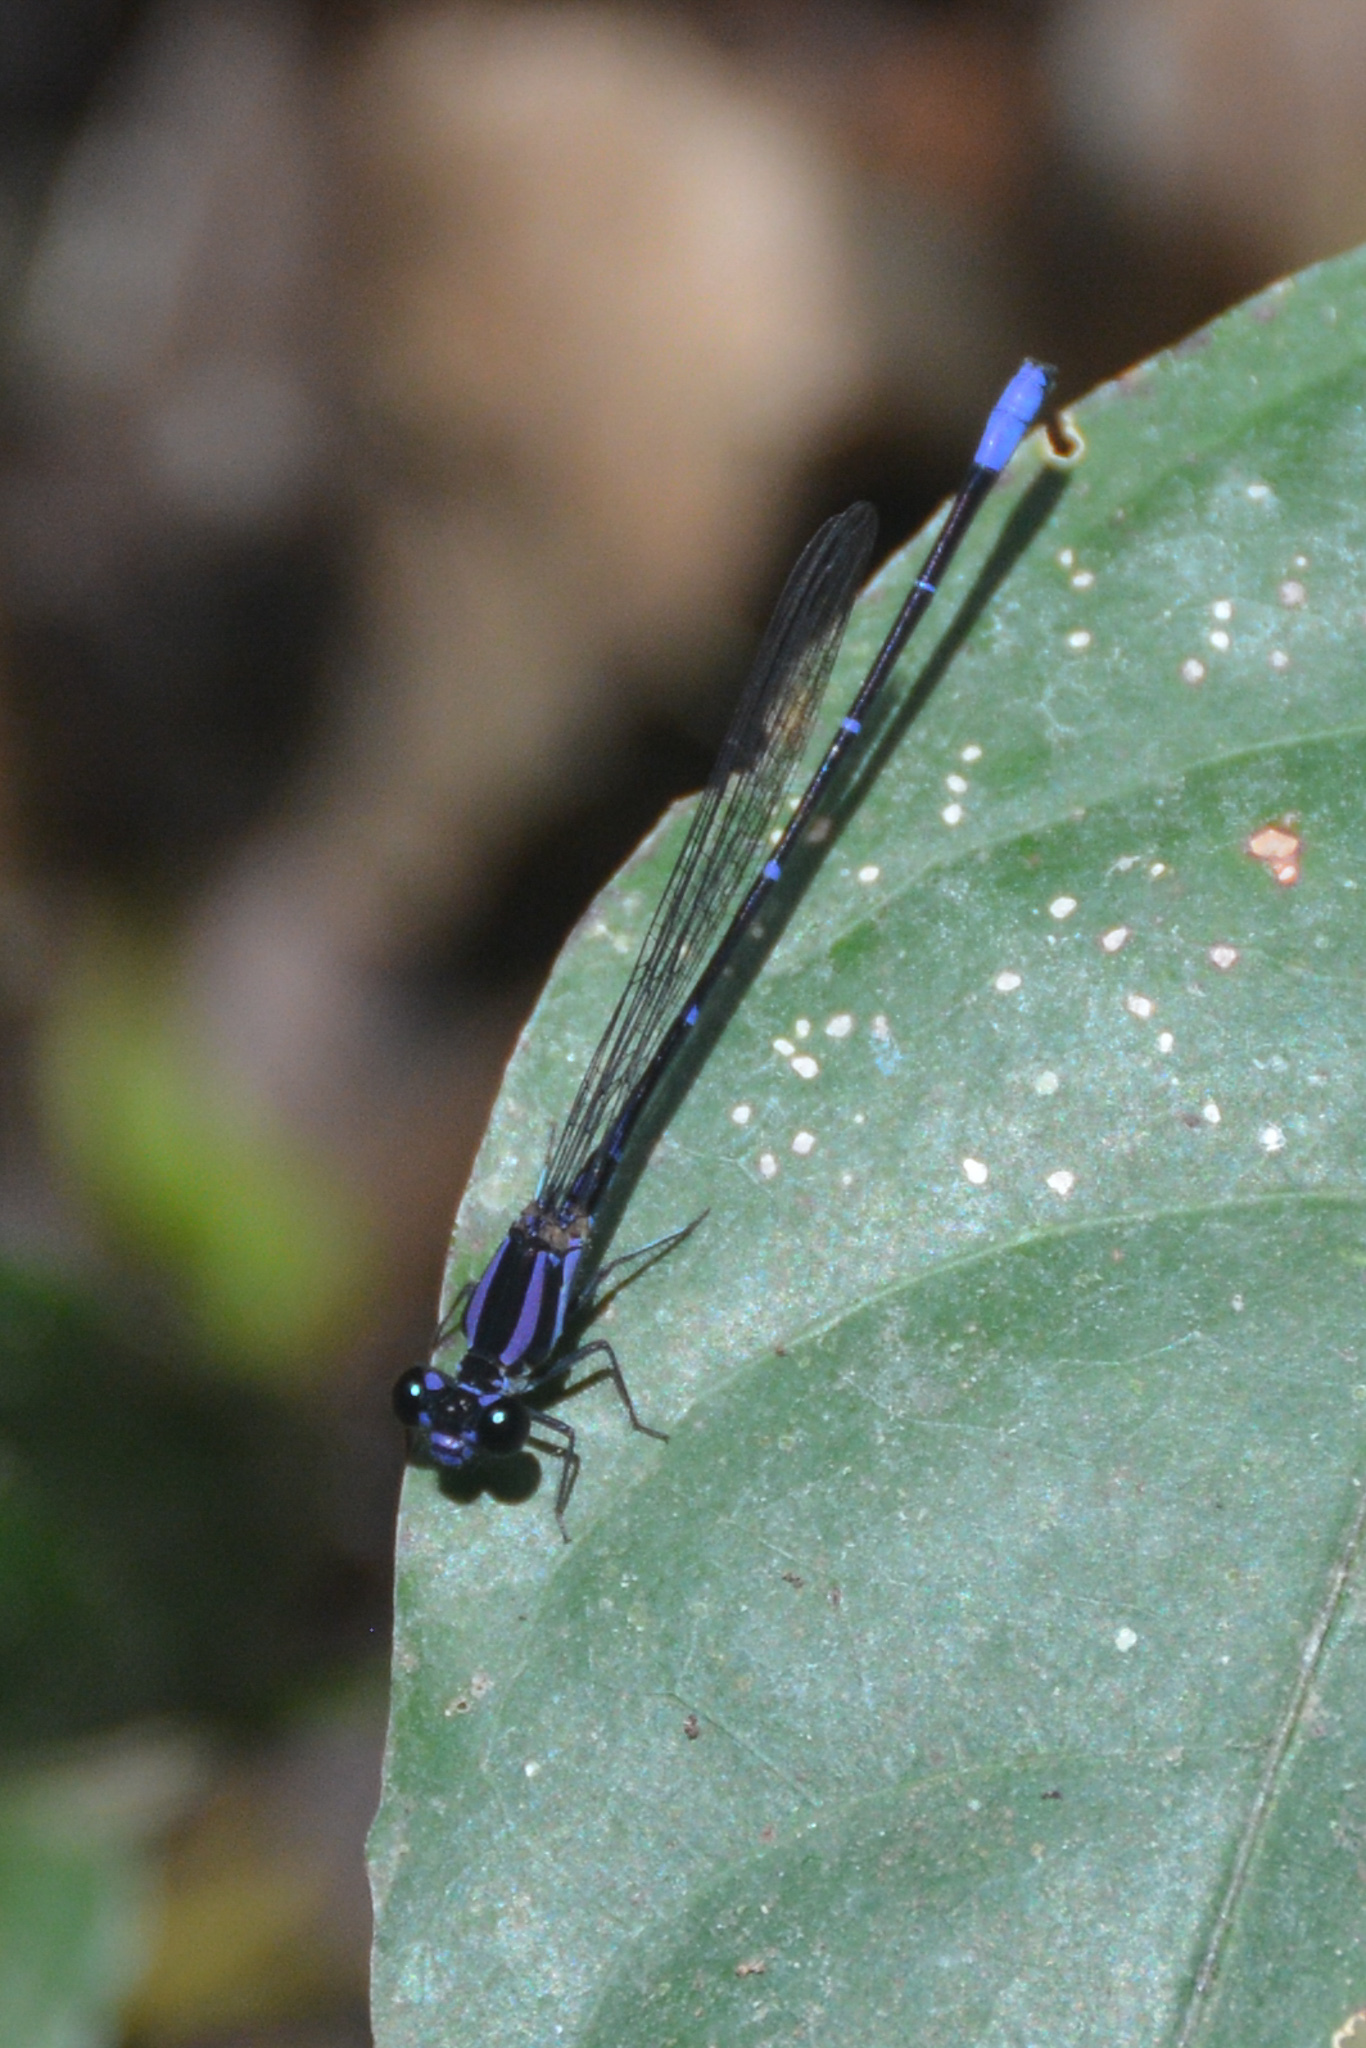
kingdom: Animalia
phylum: Arthropoda
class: Insecta
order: Odonata
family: Coenagrionidae
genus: Argia
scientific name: Argia oculata
